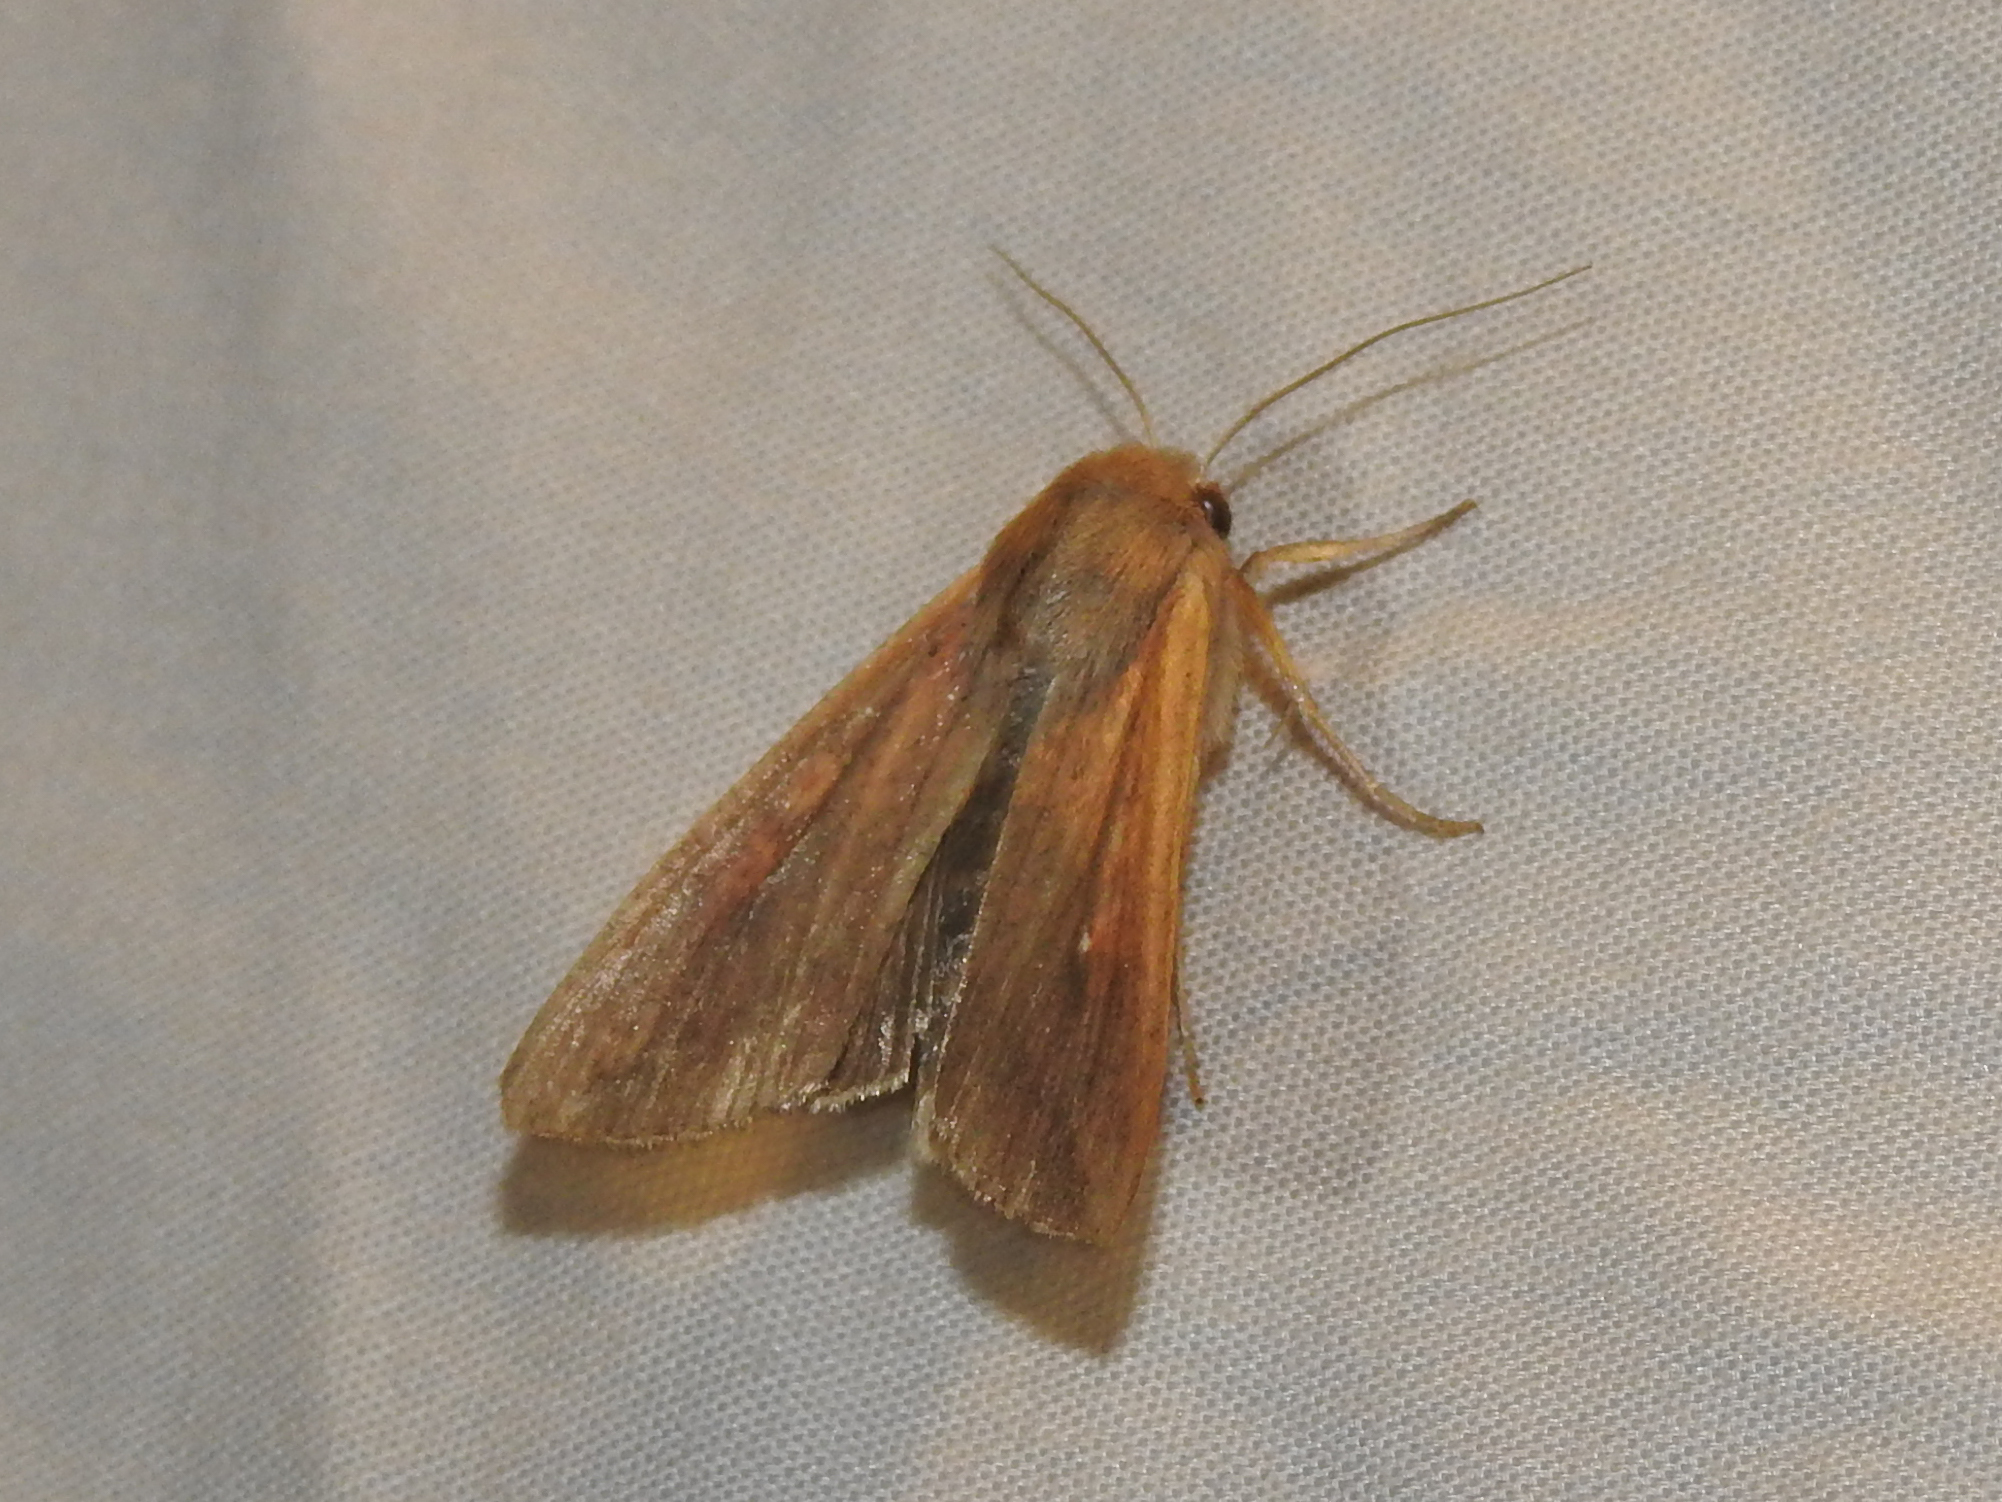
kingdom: Animalia
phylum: Arthropoda
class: Insecta
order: Lepidoptera
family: Noctuidae
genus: Mythimna
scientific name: Mythimna unipuncta
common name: White-speck
